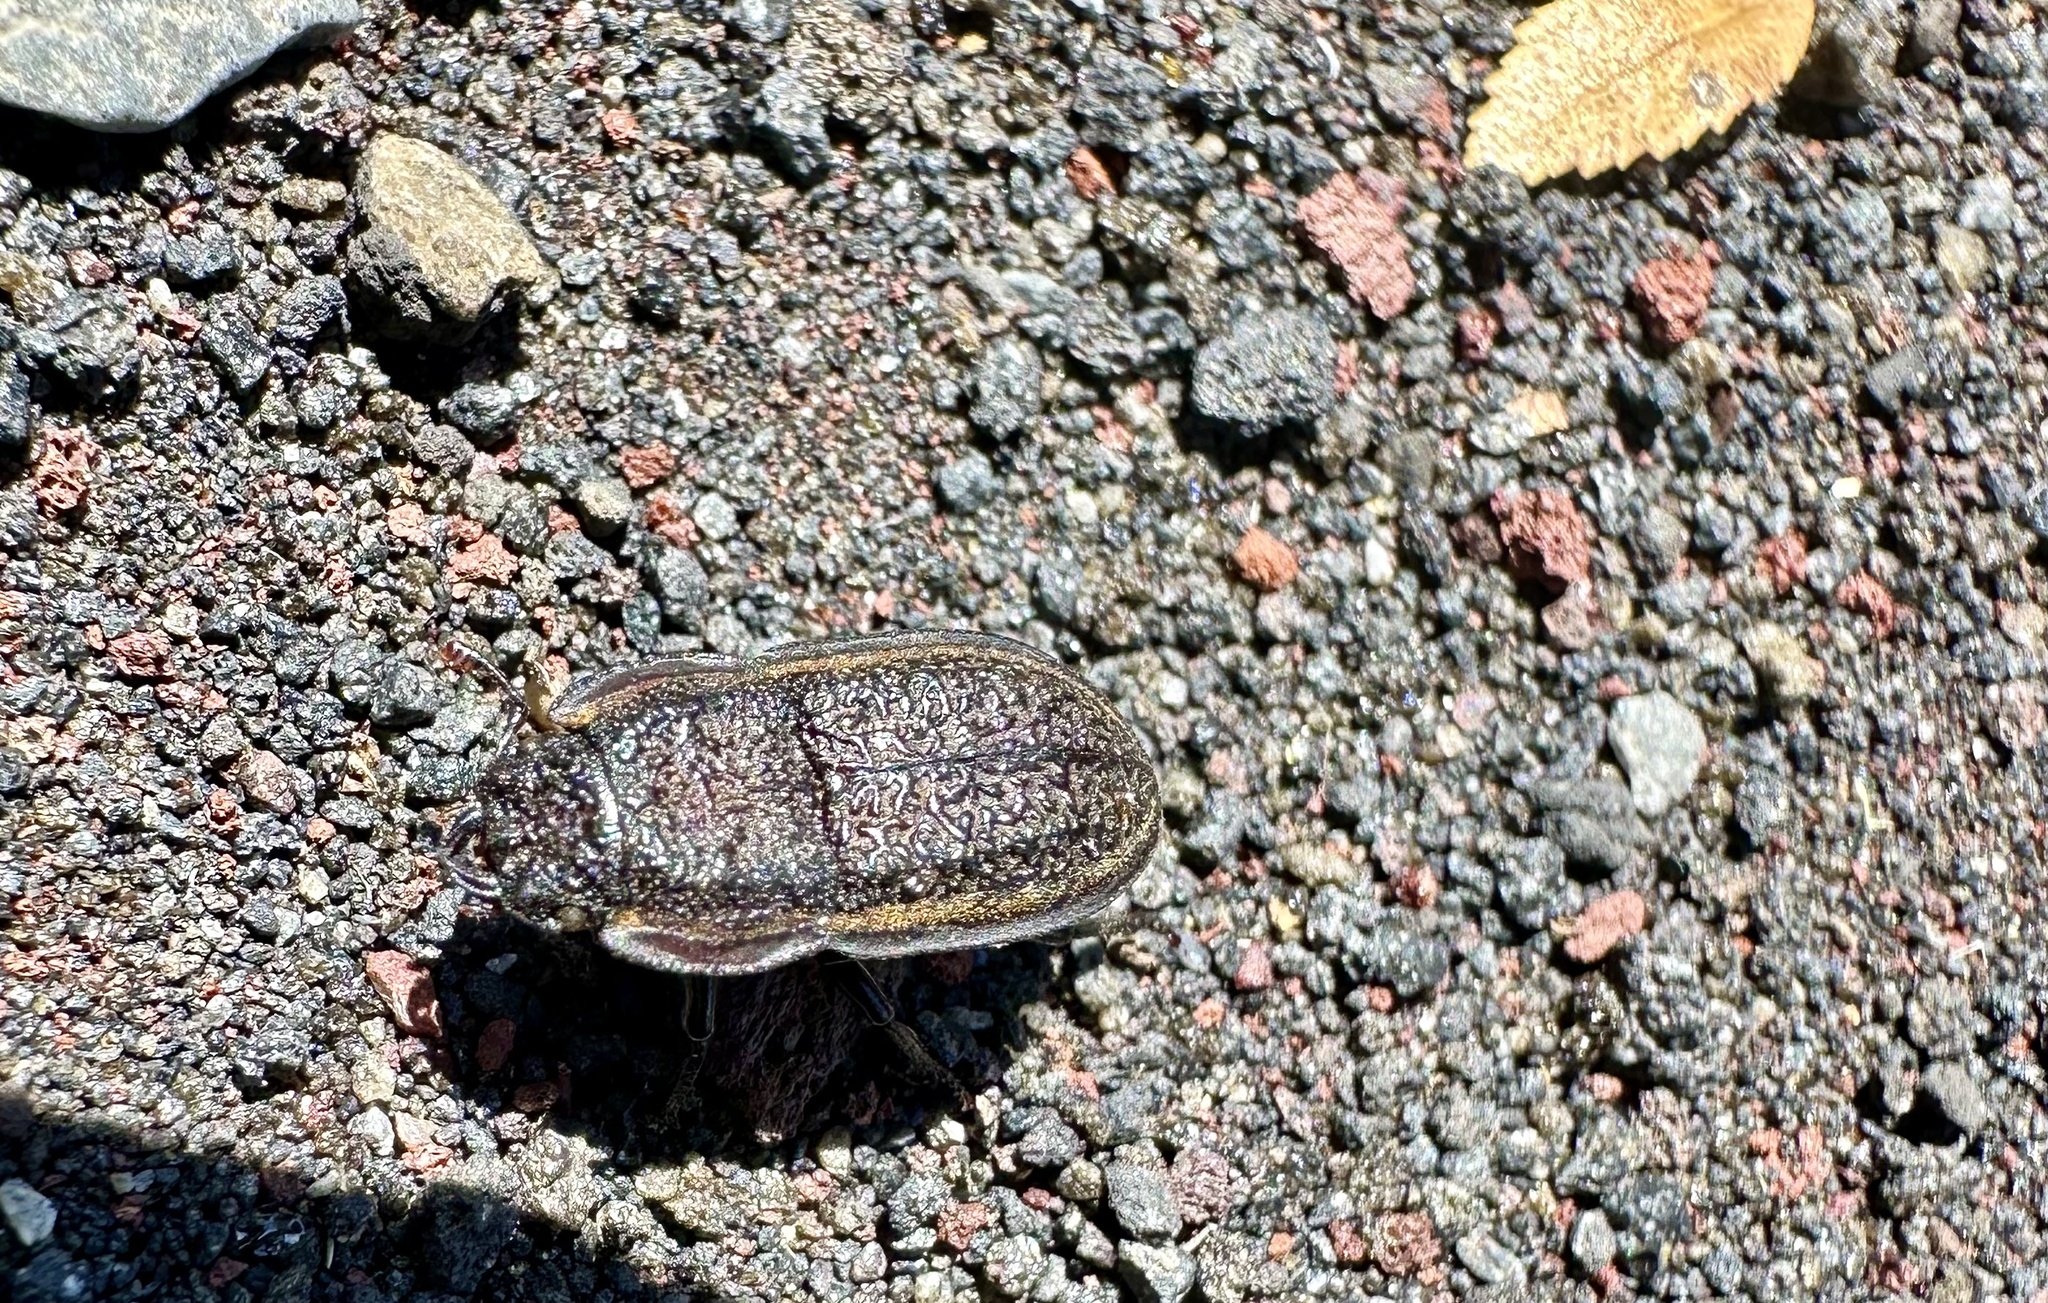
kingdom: Animalia
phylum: Arthropoda
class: Insecta
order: Coleoptera
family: Lucanidae
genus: Erichius
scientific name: Erichius caelatus
